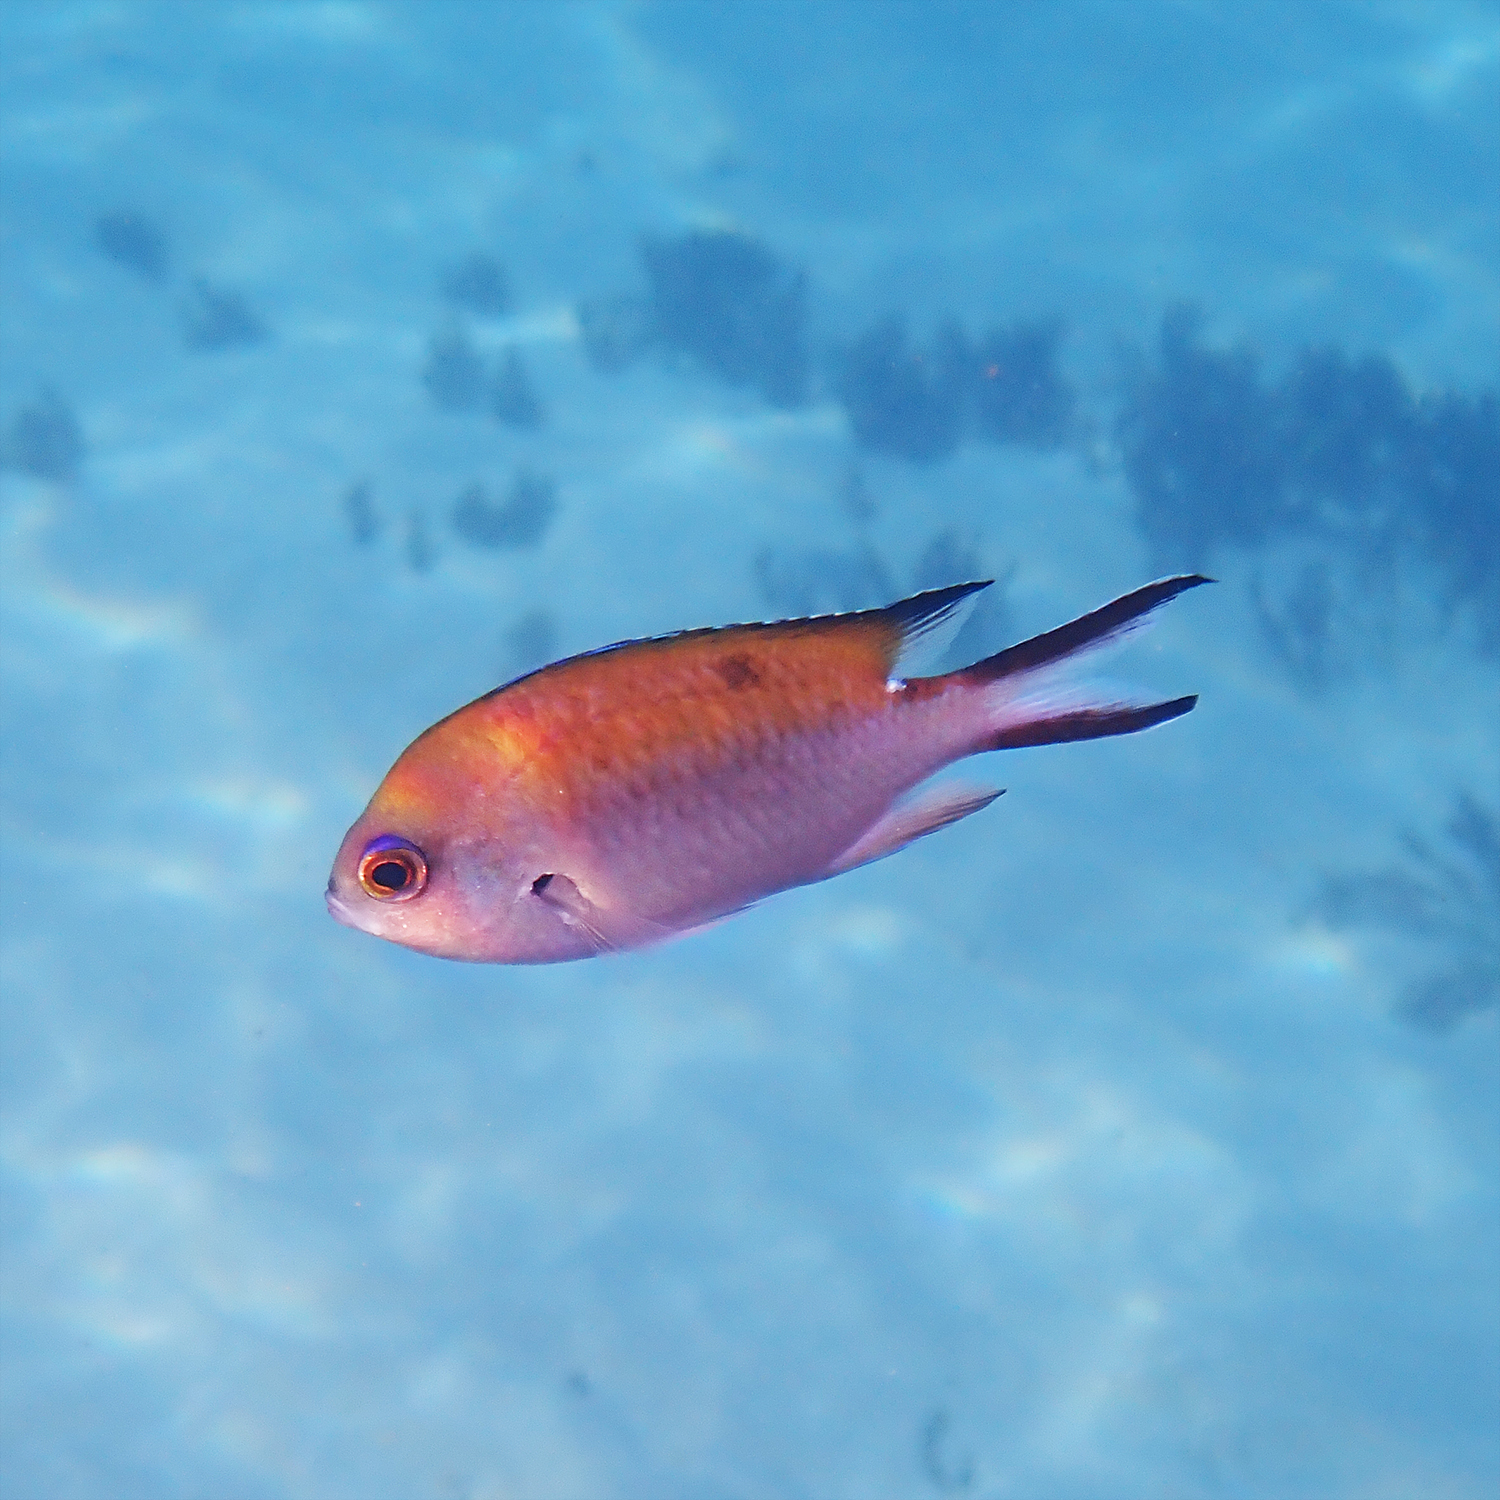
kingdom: Animalia
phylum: Chordata
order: Perciformes
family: Pomacentridae
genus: Chromis
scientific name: Chromis norfolkensis
